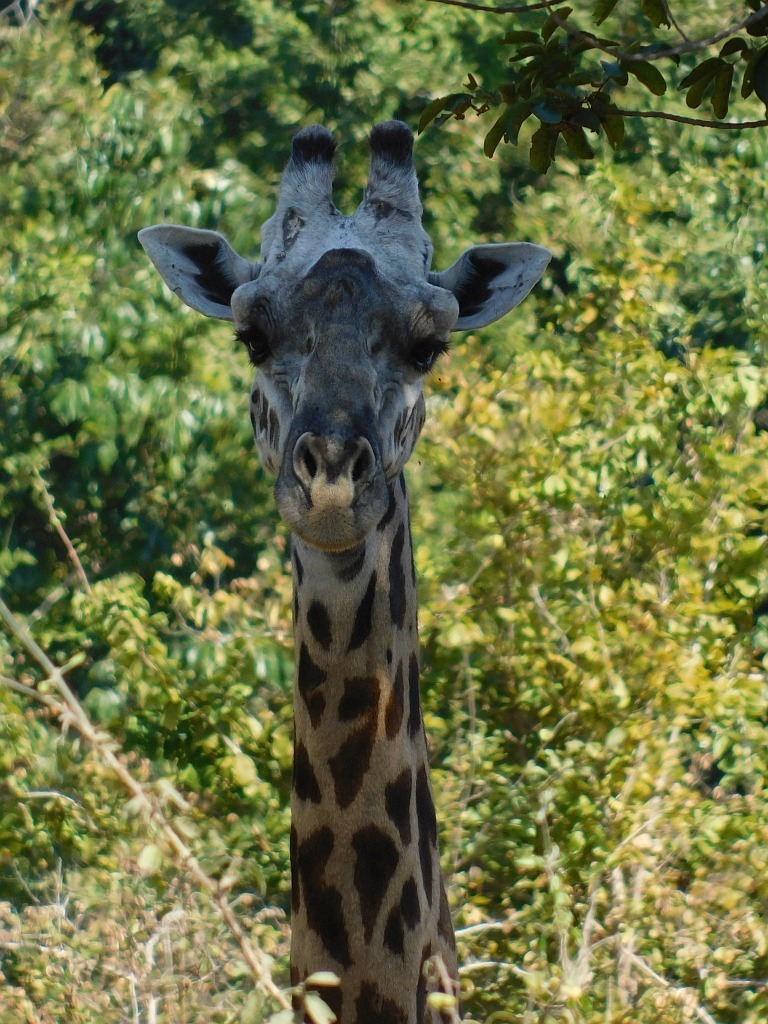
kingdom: Animalia
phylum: Chordata
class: Mammalia
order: Artiodactyla
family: Giraffidae
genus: Giraffa
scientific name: Giraffa tippelskirchi
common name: Masai giraffe
